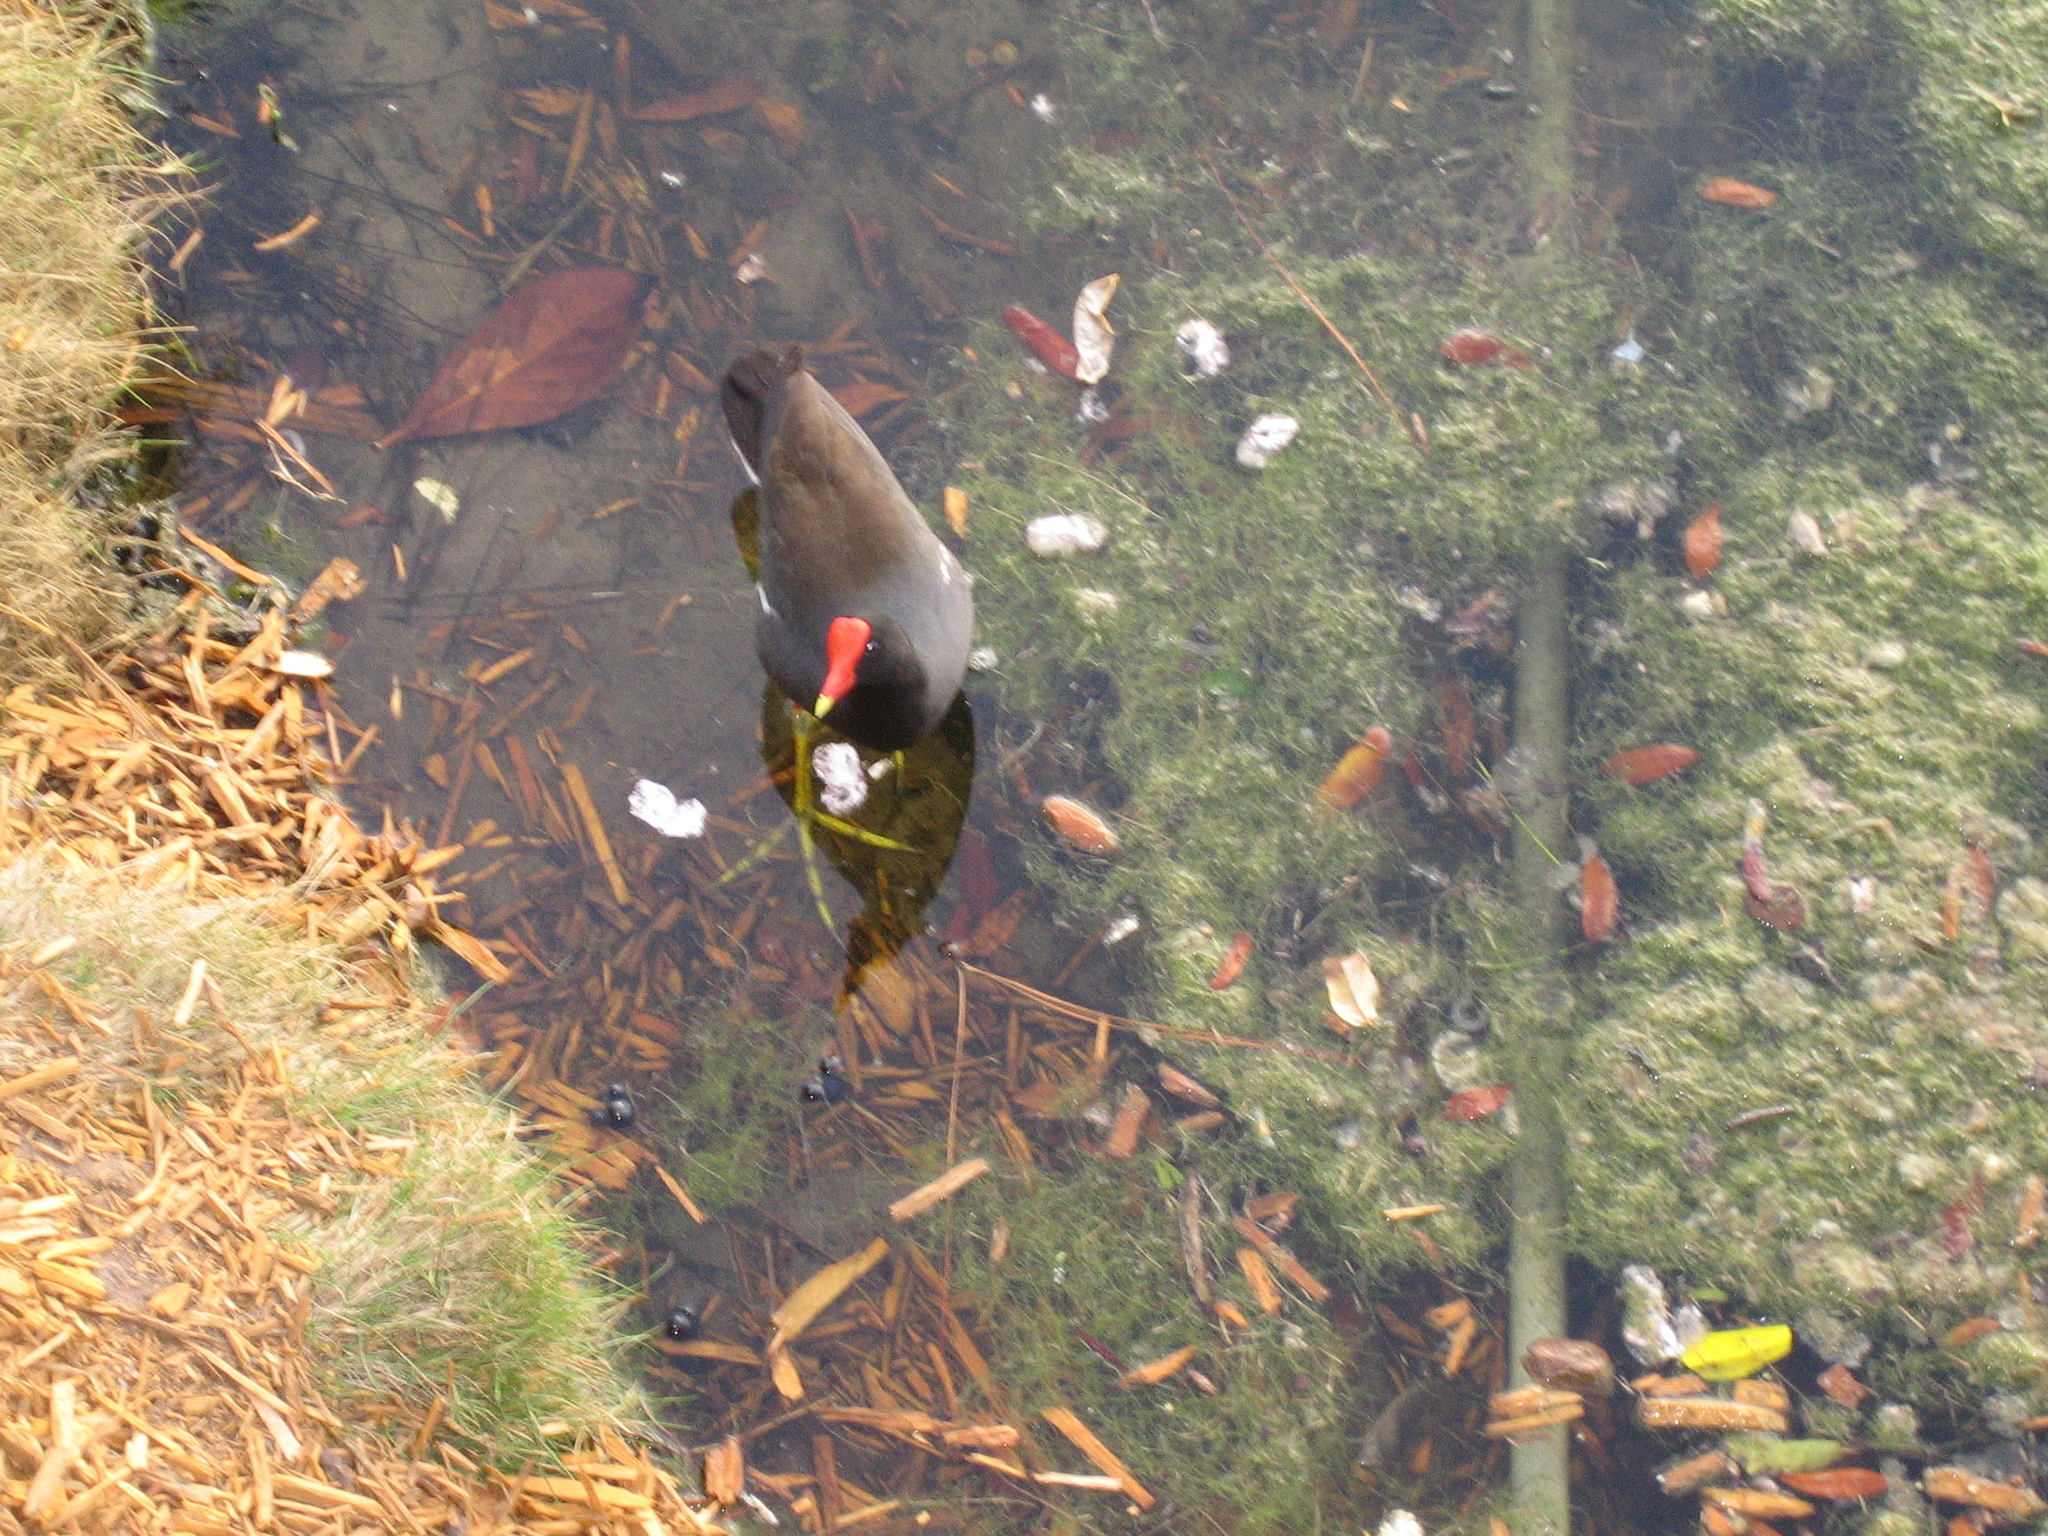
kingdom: Animalia
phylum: Chordata
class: Aves
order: Gruiformes
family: Rallidae
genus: Gallinula
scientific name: Gallinula chloropus
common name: Common moorhen
